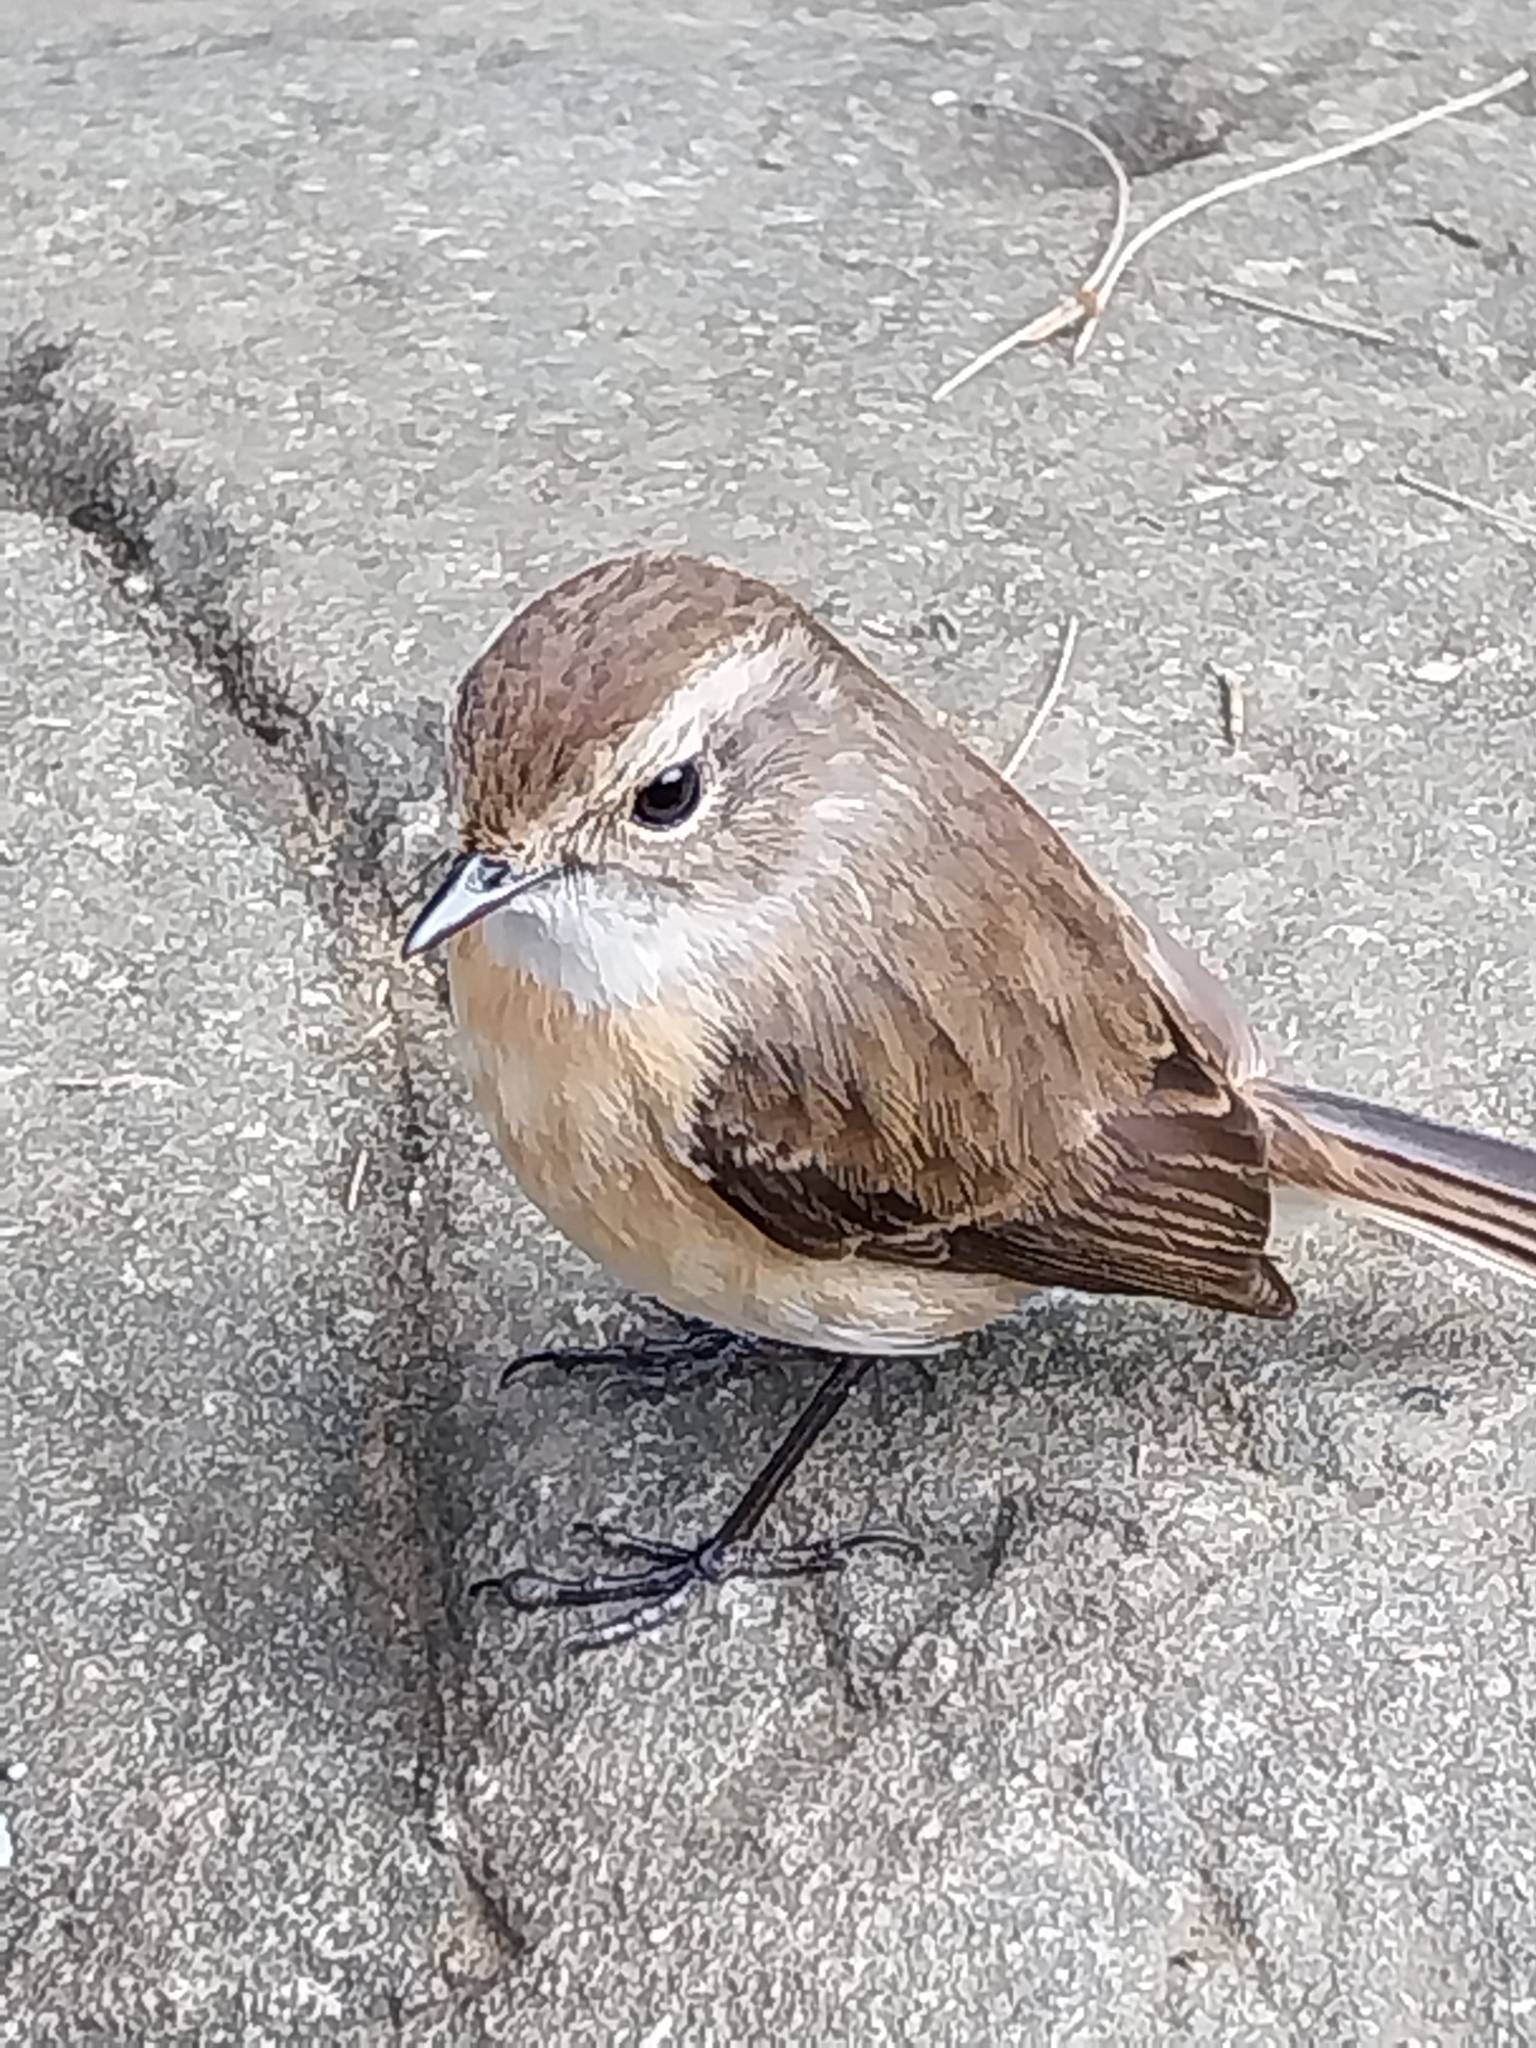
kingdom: Animalia
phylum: Chordata
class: Aves
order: Passeriformes
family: Muscicapidae
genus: Saxicola
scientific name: Saxicola tectes
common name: Reunion stonechat
